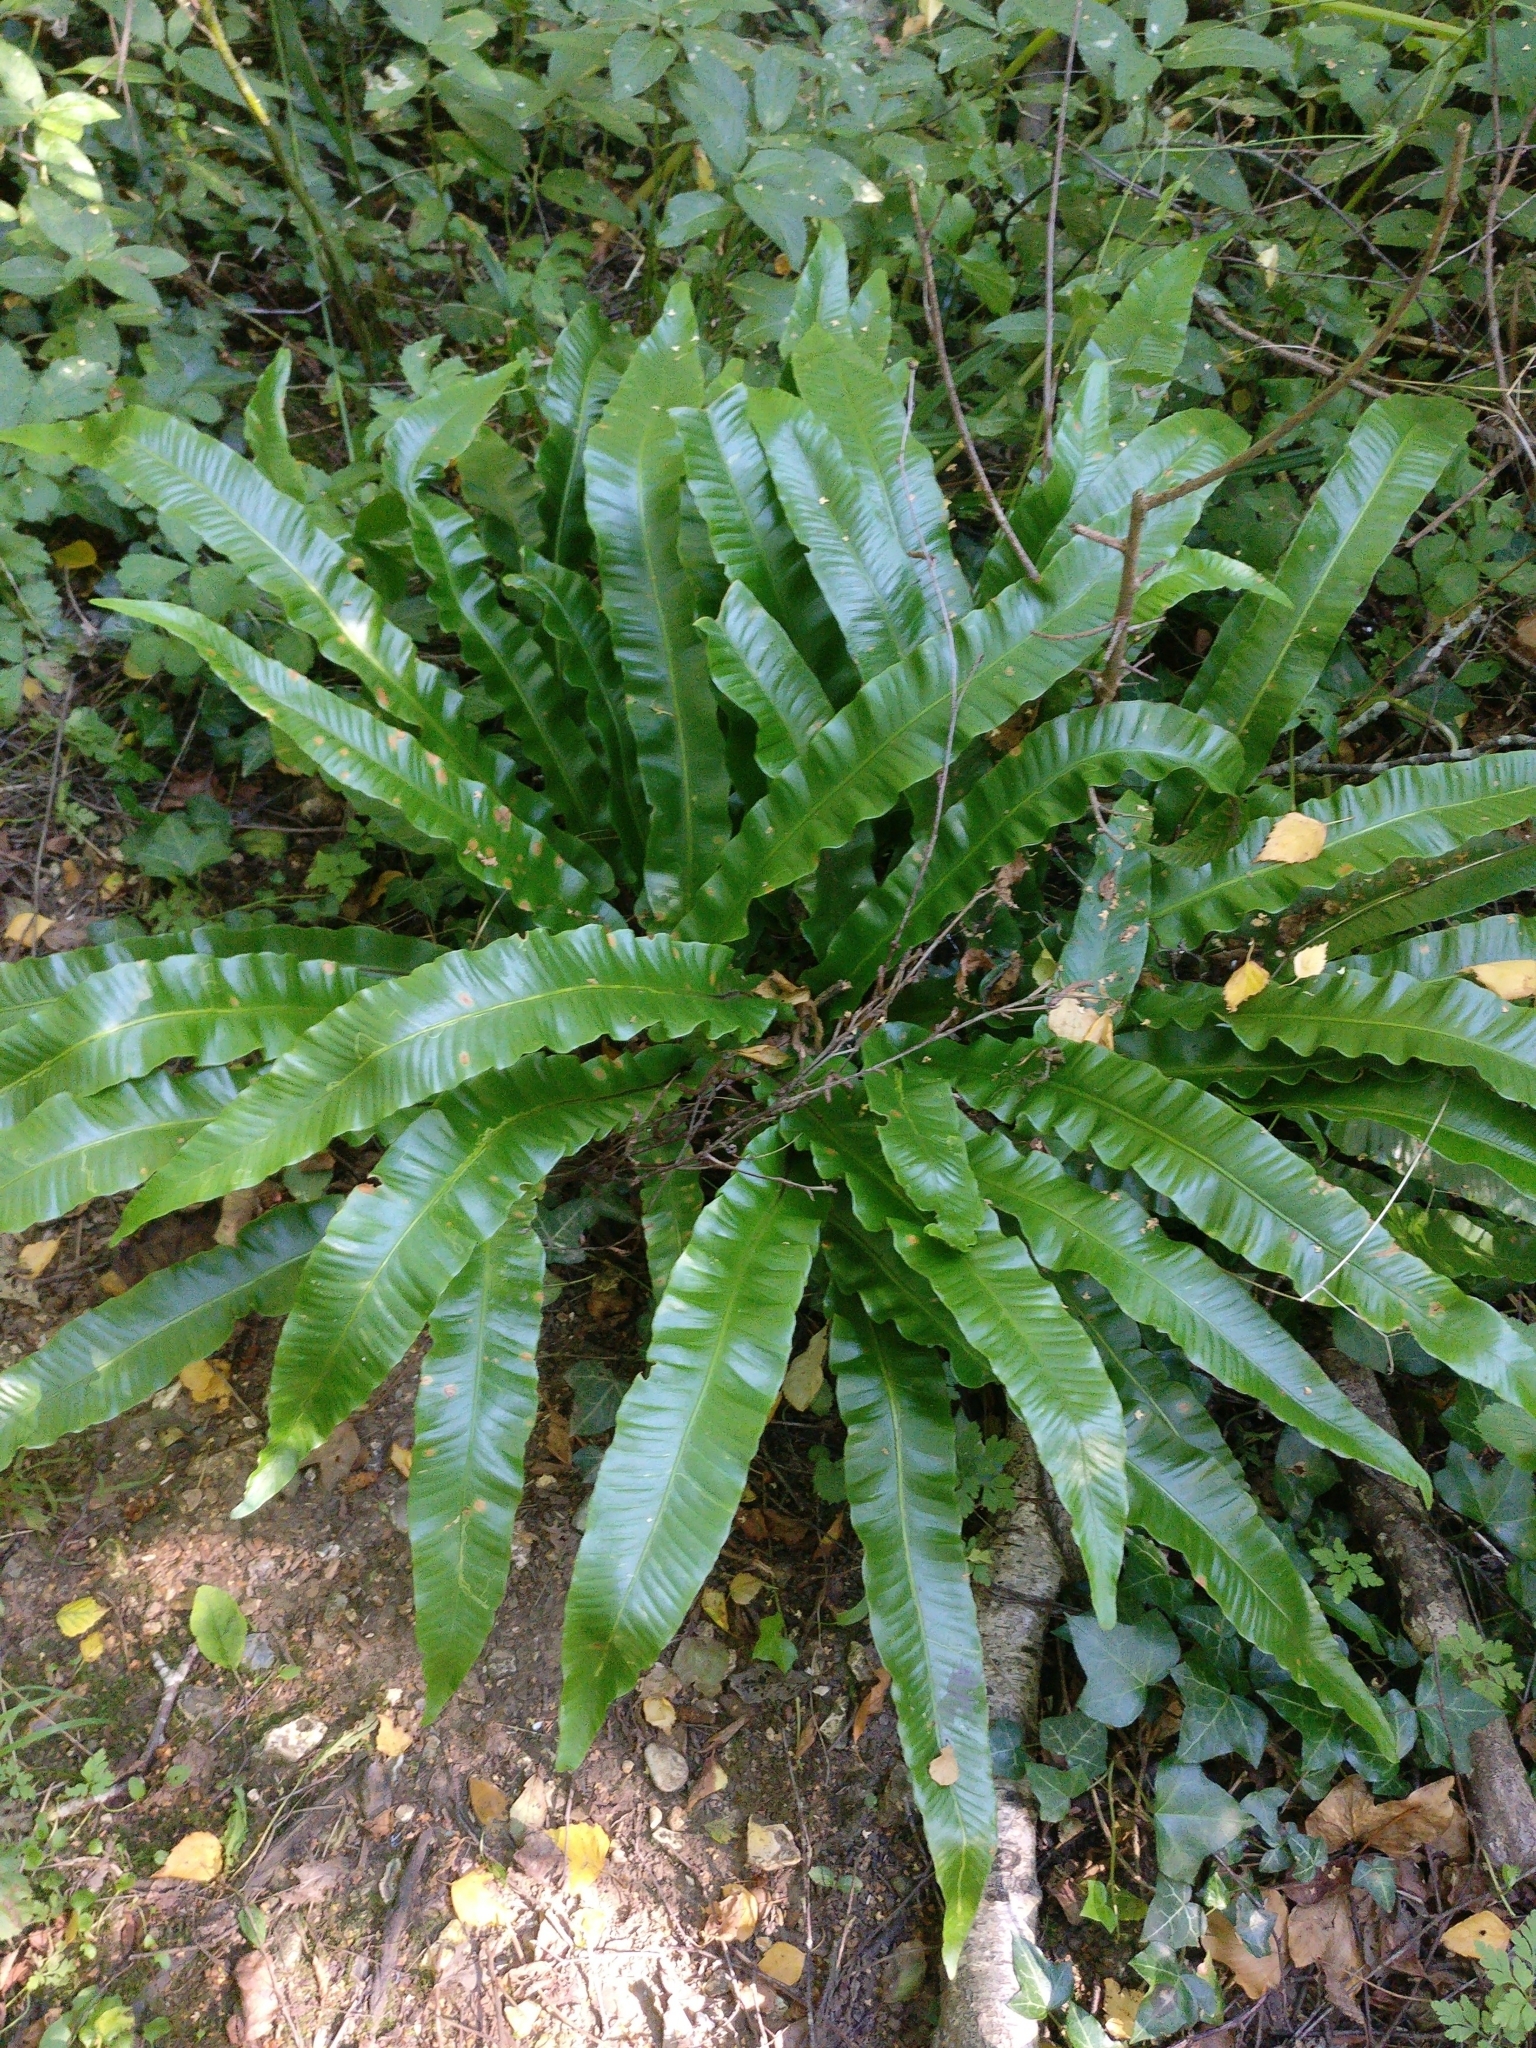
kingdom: Plantae
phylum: Tracheophyta
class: Polypodiopsida
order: Polypodiales
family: Aspleniaceae
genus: Asplenium
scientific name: Asplenium scolopendrium
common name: Hart's-tongue fern
